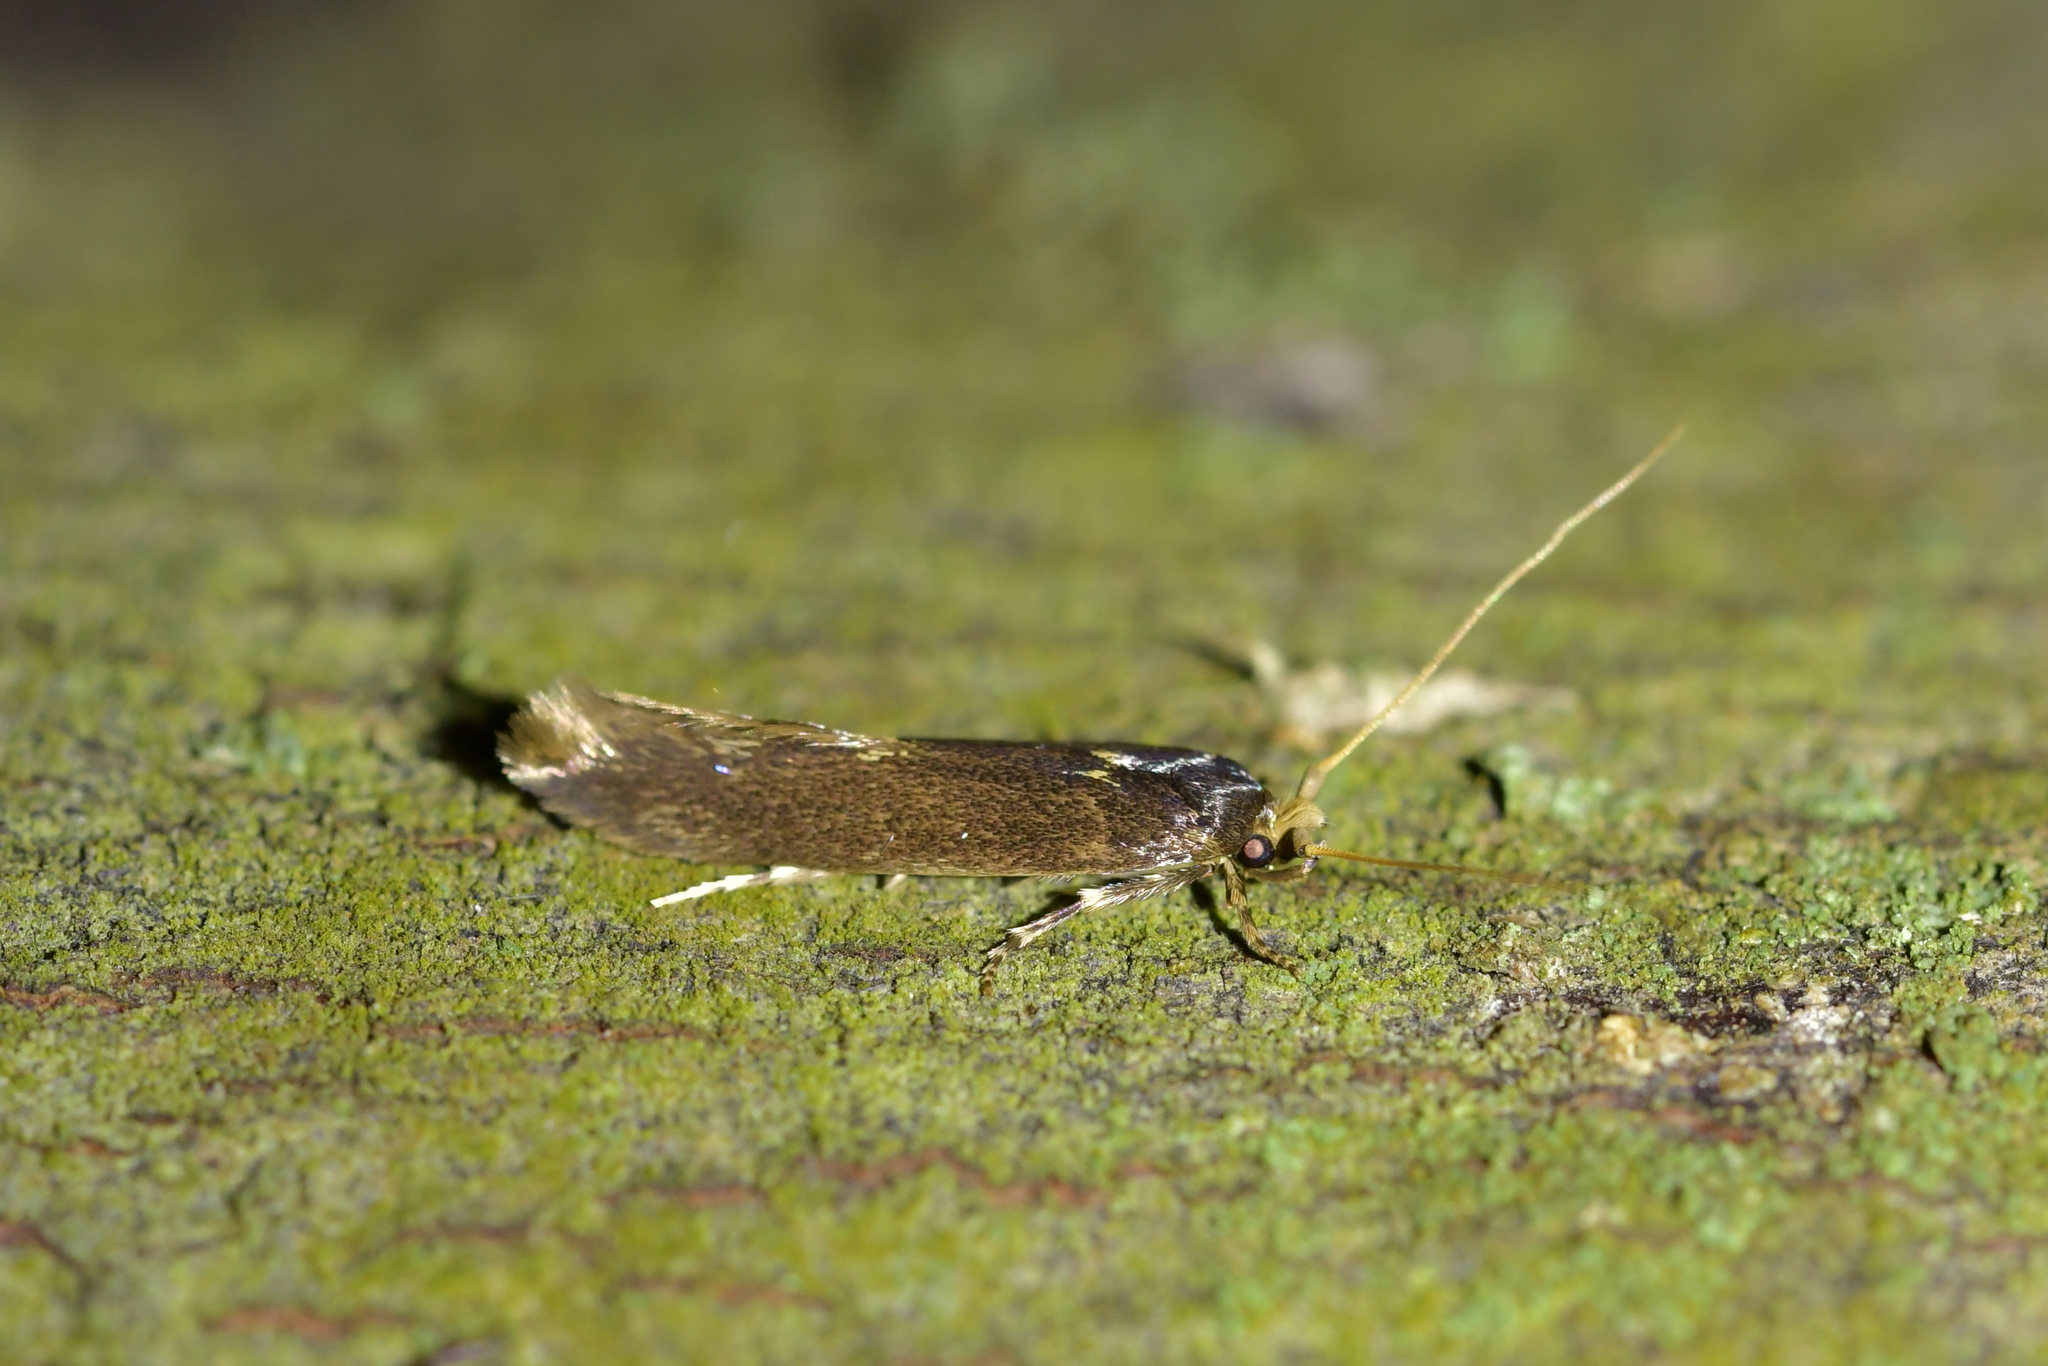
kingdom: Animalia
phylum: Arthropoda
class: Insecta
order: Lepidoptera
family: Tineidae
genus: Opogona
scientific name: Opogona omoscopa
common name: Moth
